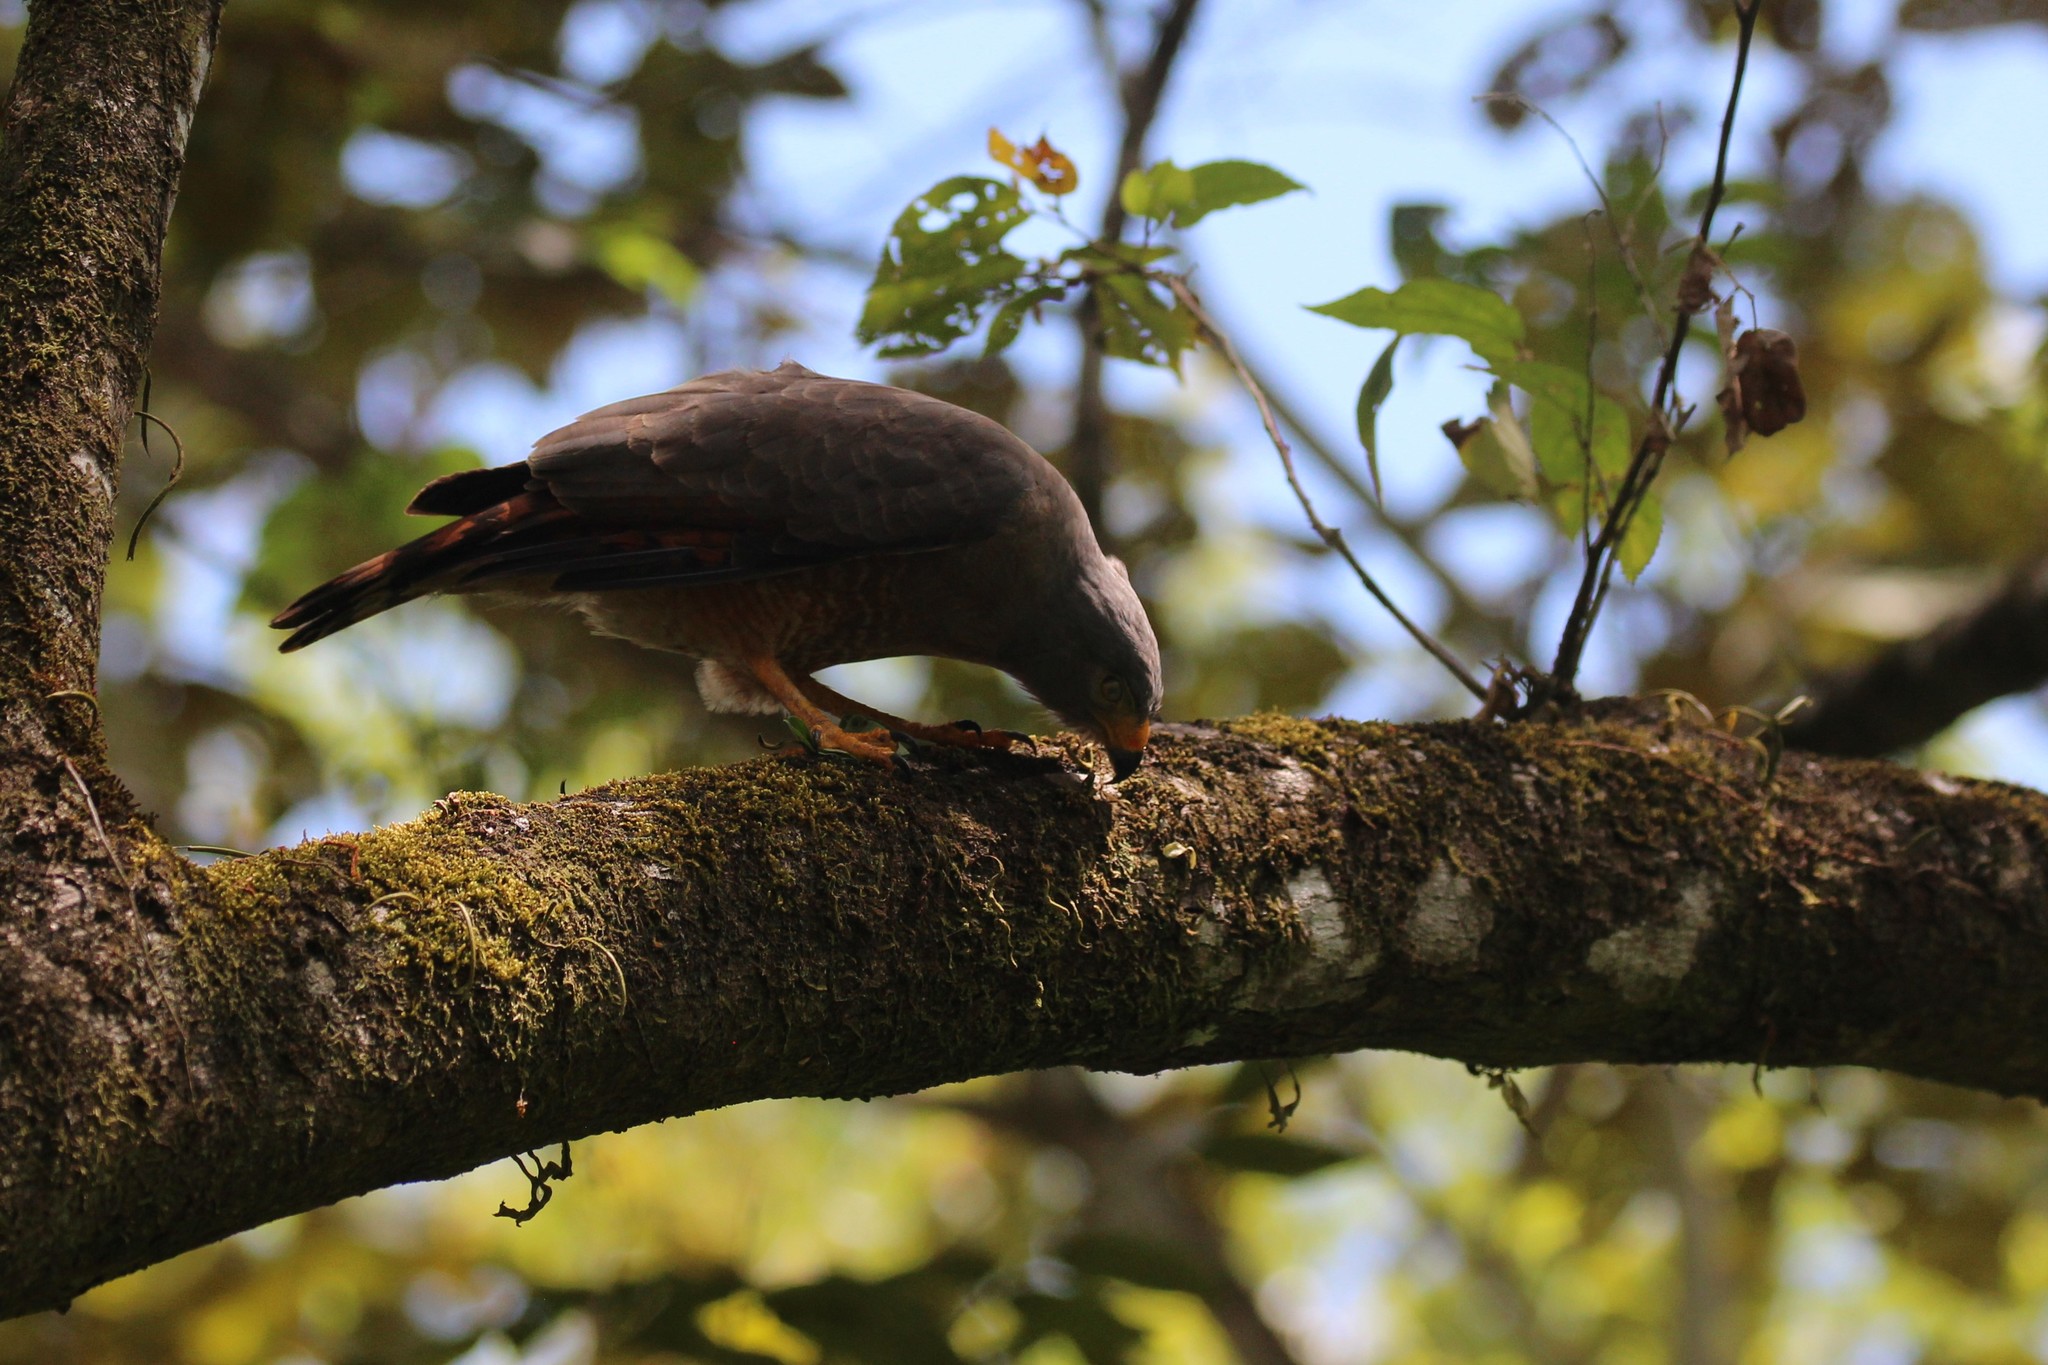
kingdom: Animalia
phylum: Chordata
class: Aves
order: Accipitriformes
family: Accipitridae
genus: Rupornis
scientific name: Rupornis magnirostris
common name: Roadside hawk
